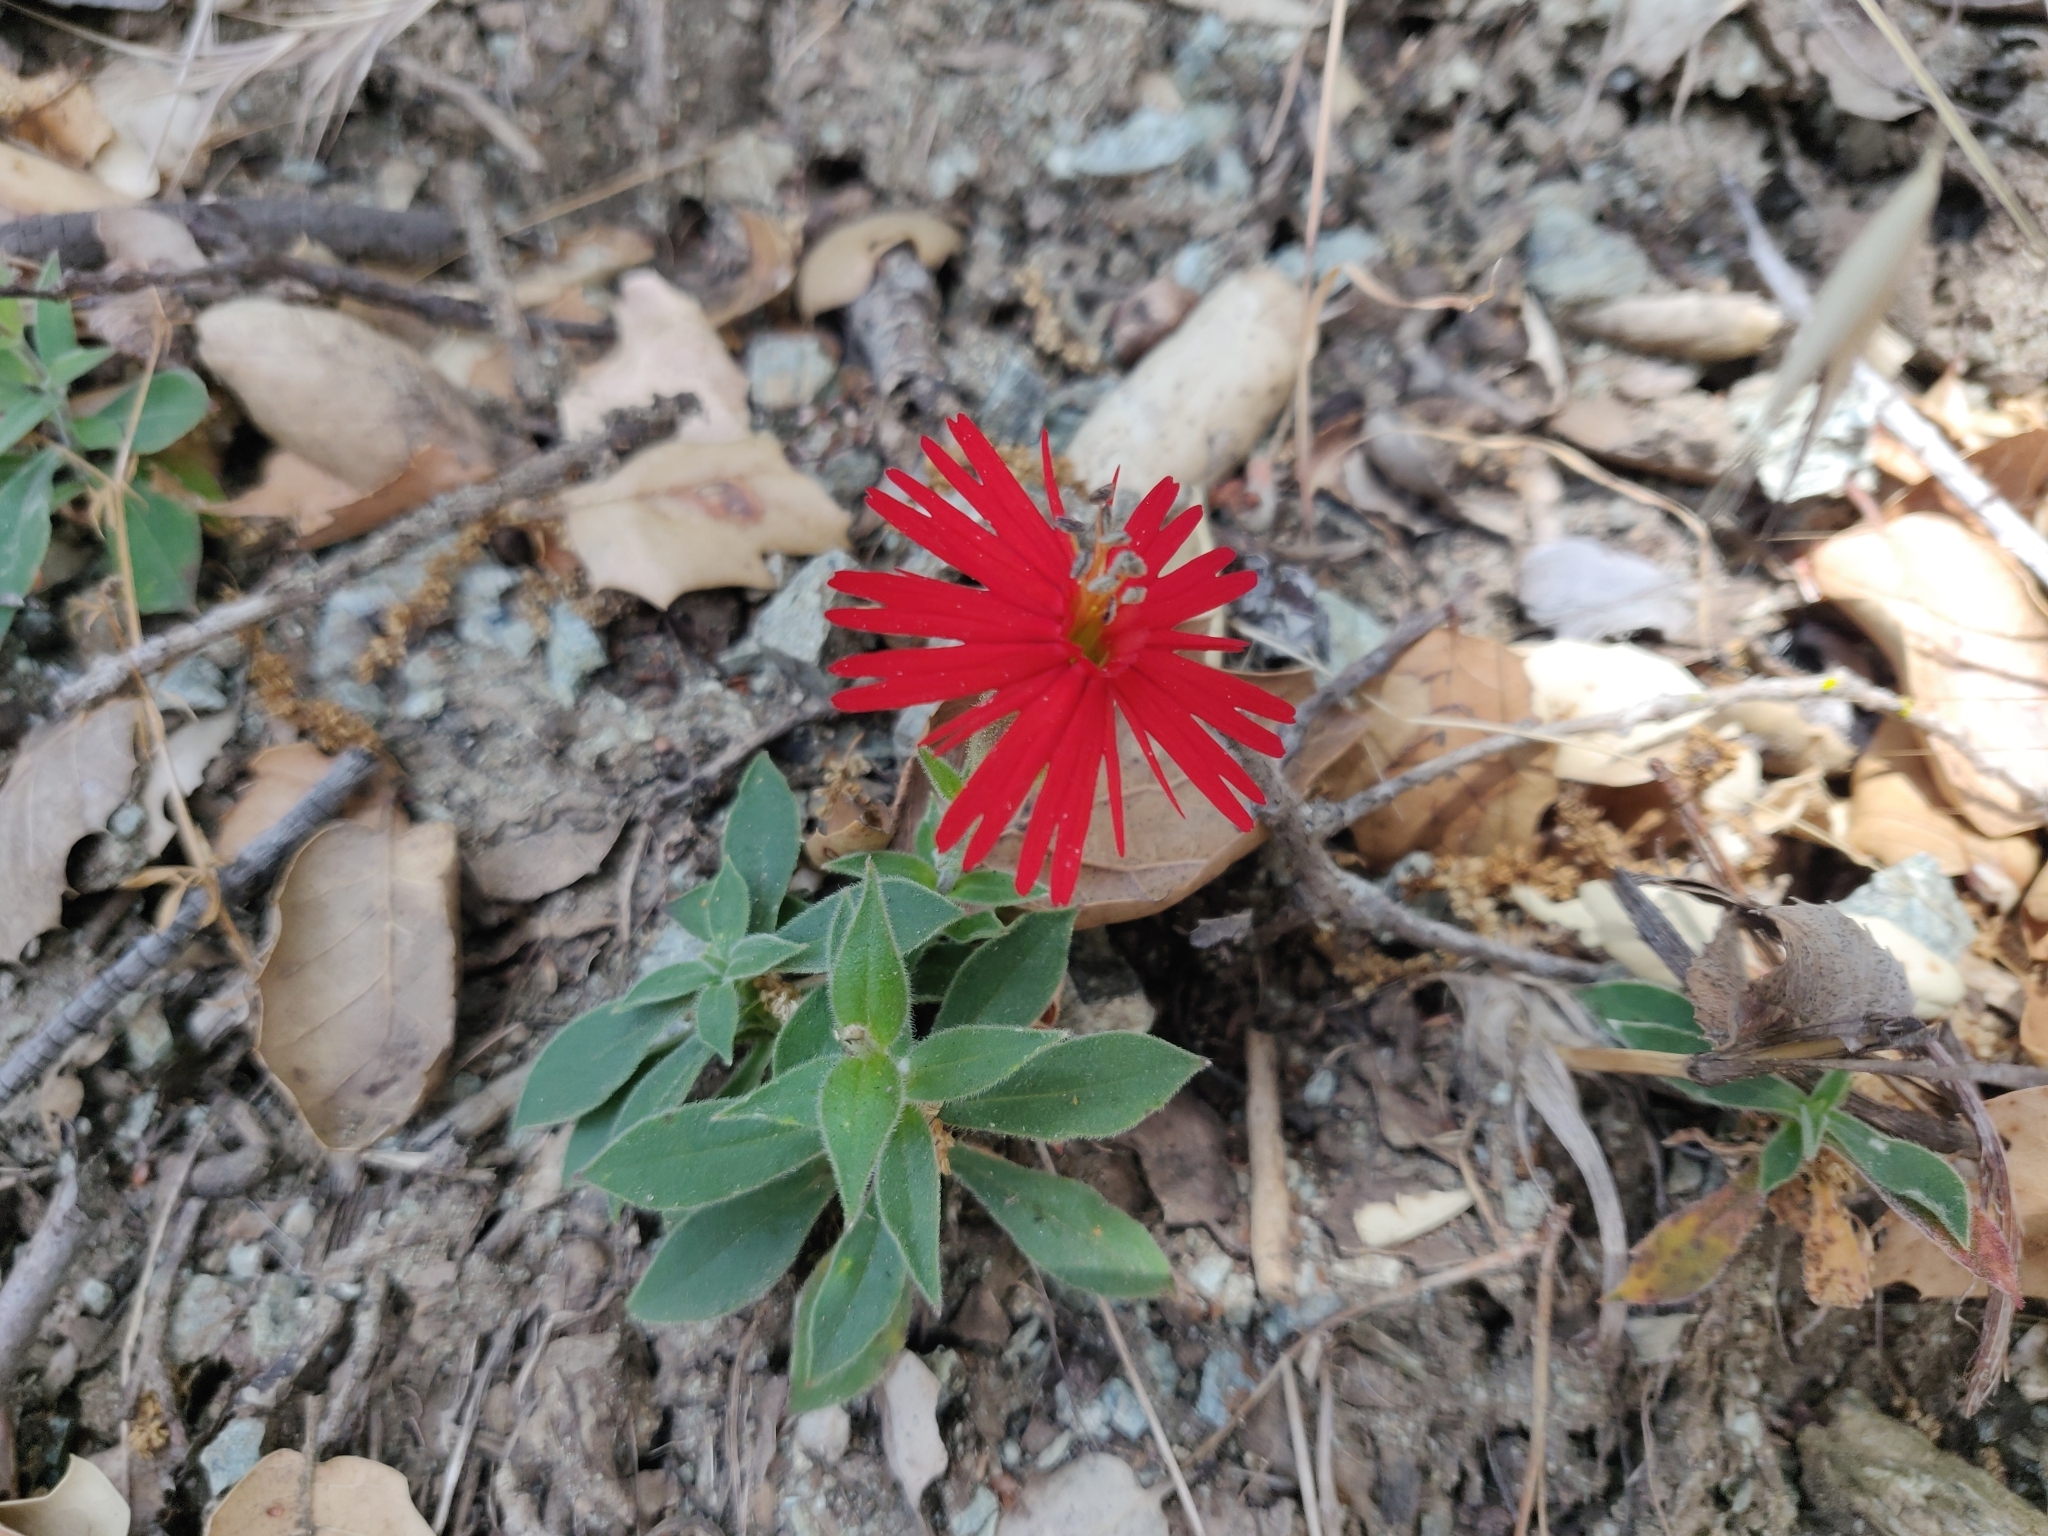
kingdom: Plantae
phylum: Tracheophyta
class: Magnoliopsida
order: Caryophyllales
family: Caryophyllaceae
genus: Silene
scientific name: Silene laciniata
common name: Indian-pink
